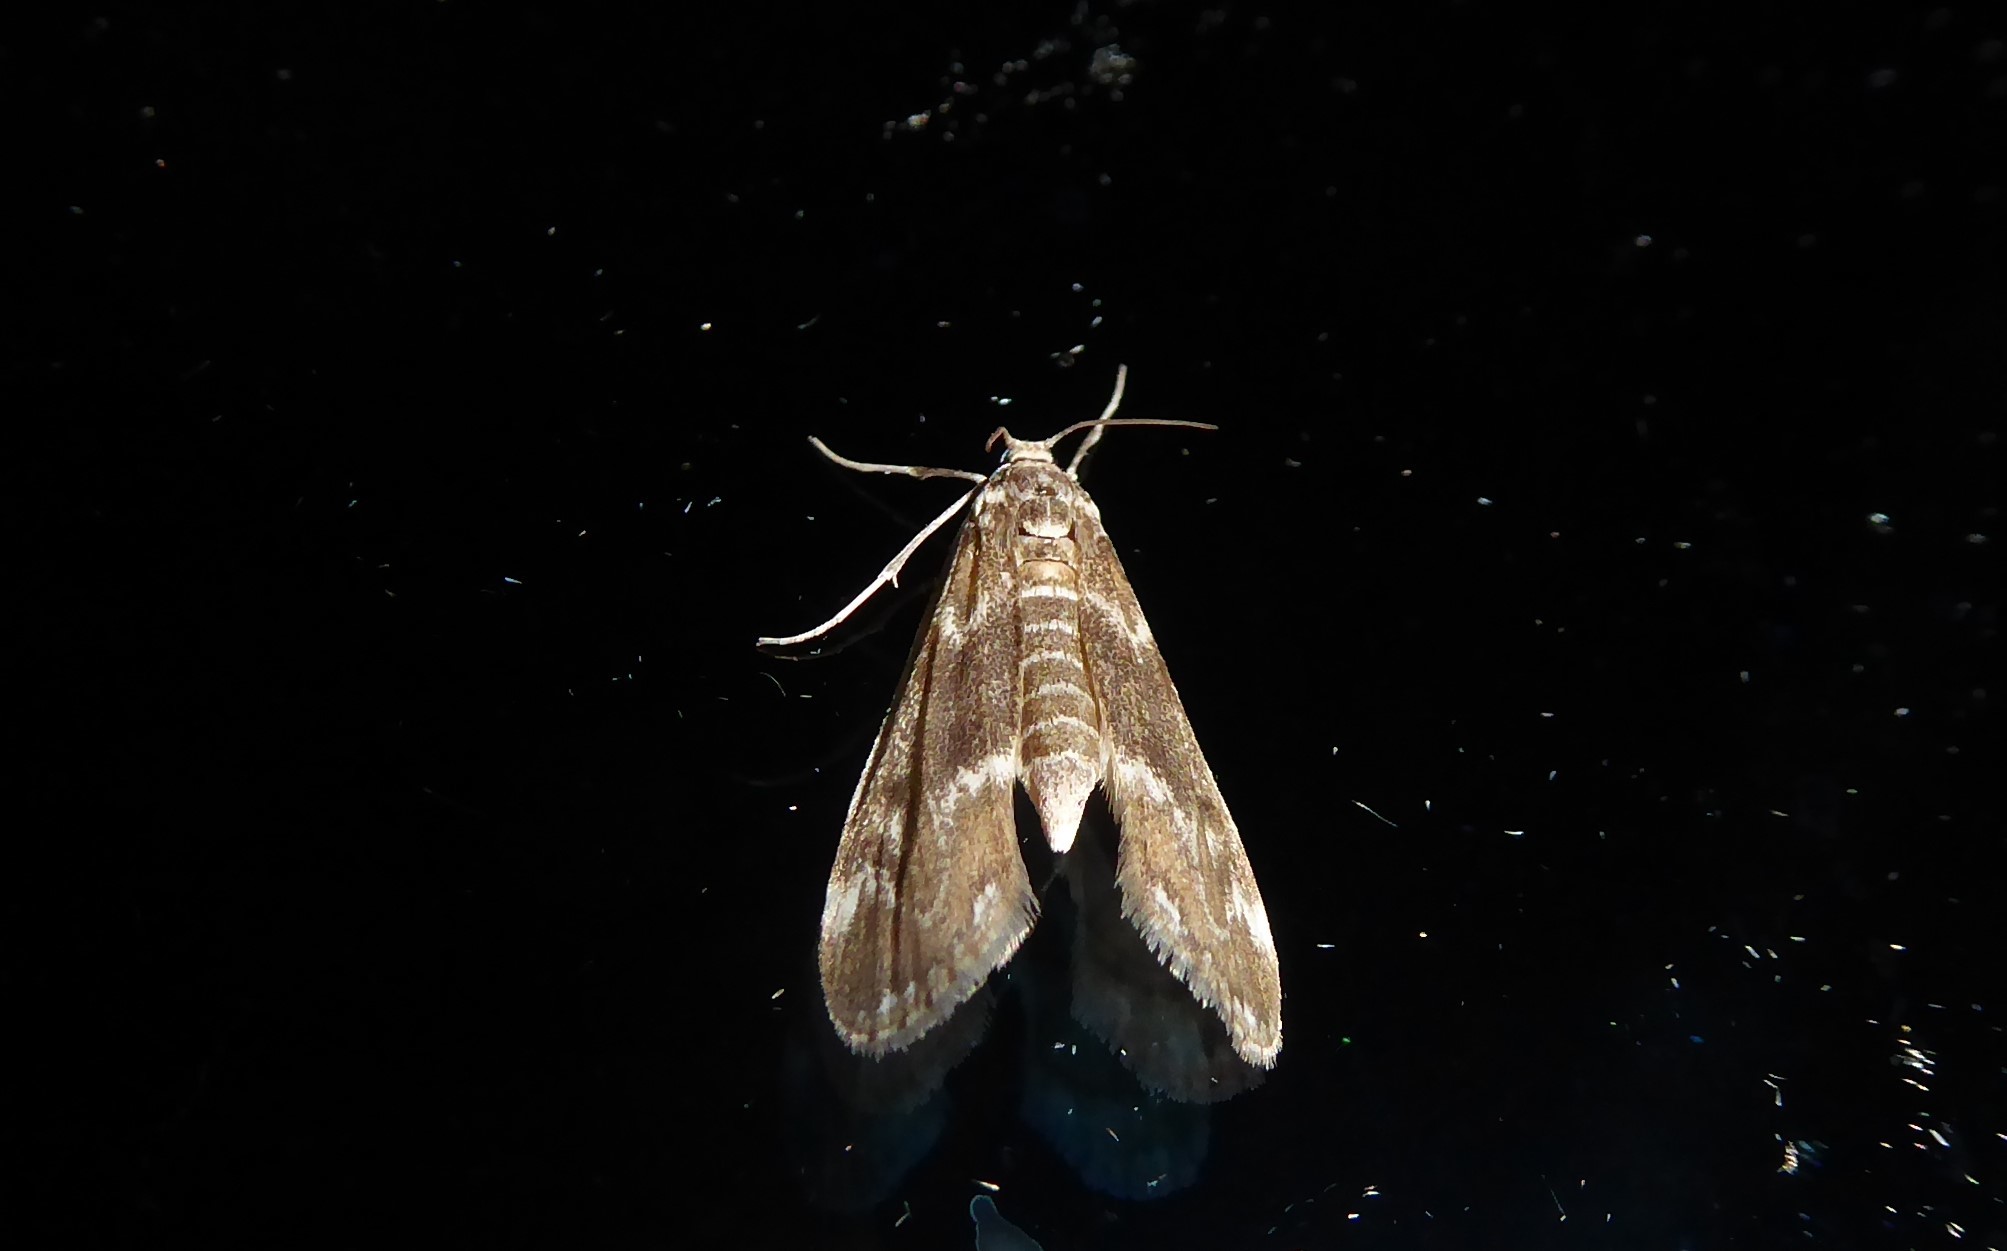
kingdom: Animalia
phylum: Arthropoda
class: Insecta
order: Lepidoptera
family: Crambidae
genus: Hygraula
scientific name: Hygraula nitens
